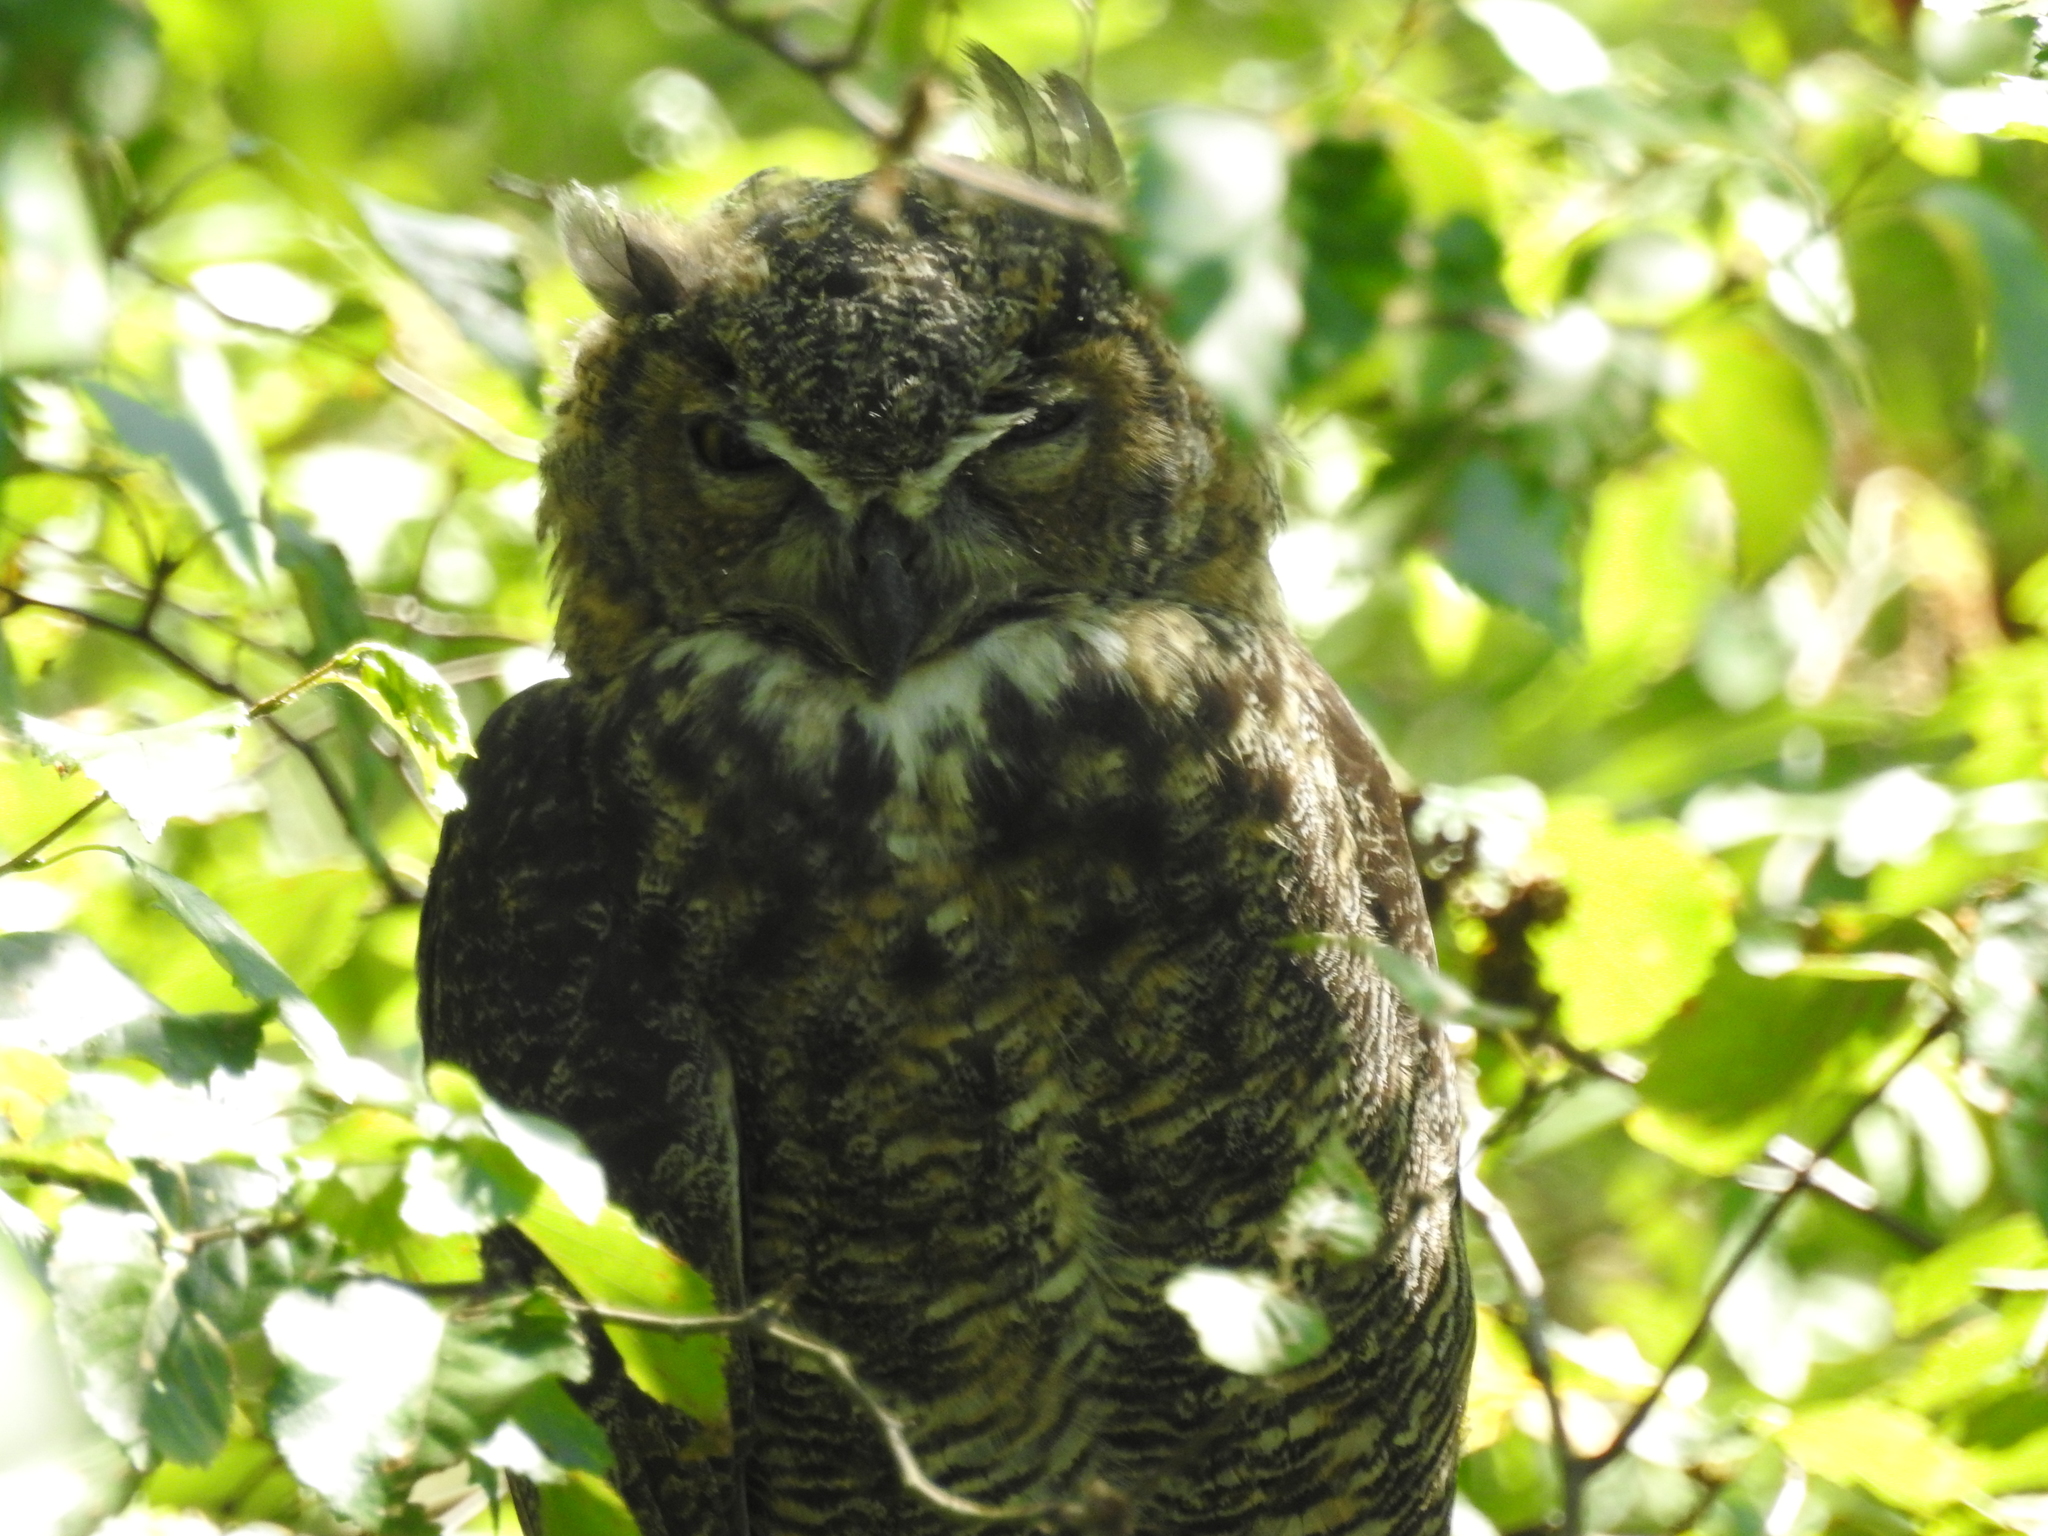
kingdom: Animalia
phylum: Chordata
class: Aves
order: Strigiformes
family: Strigidae
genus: Bubo
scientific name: Bubo virginianus
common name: Great horned owl
